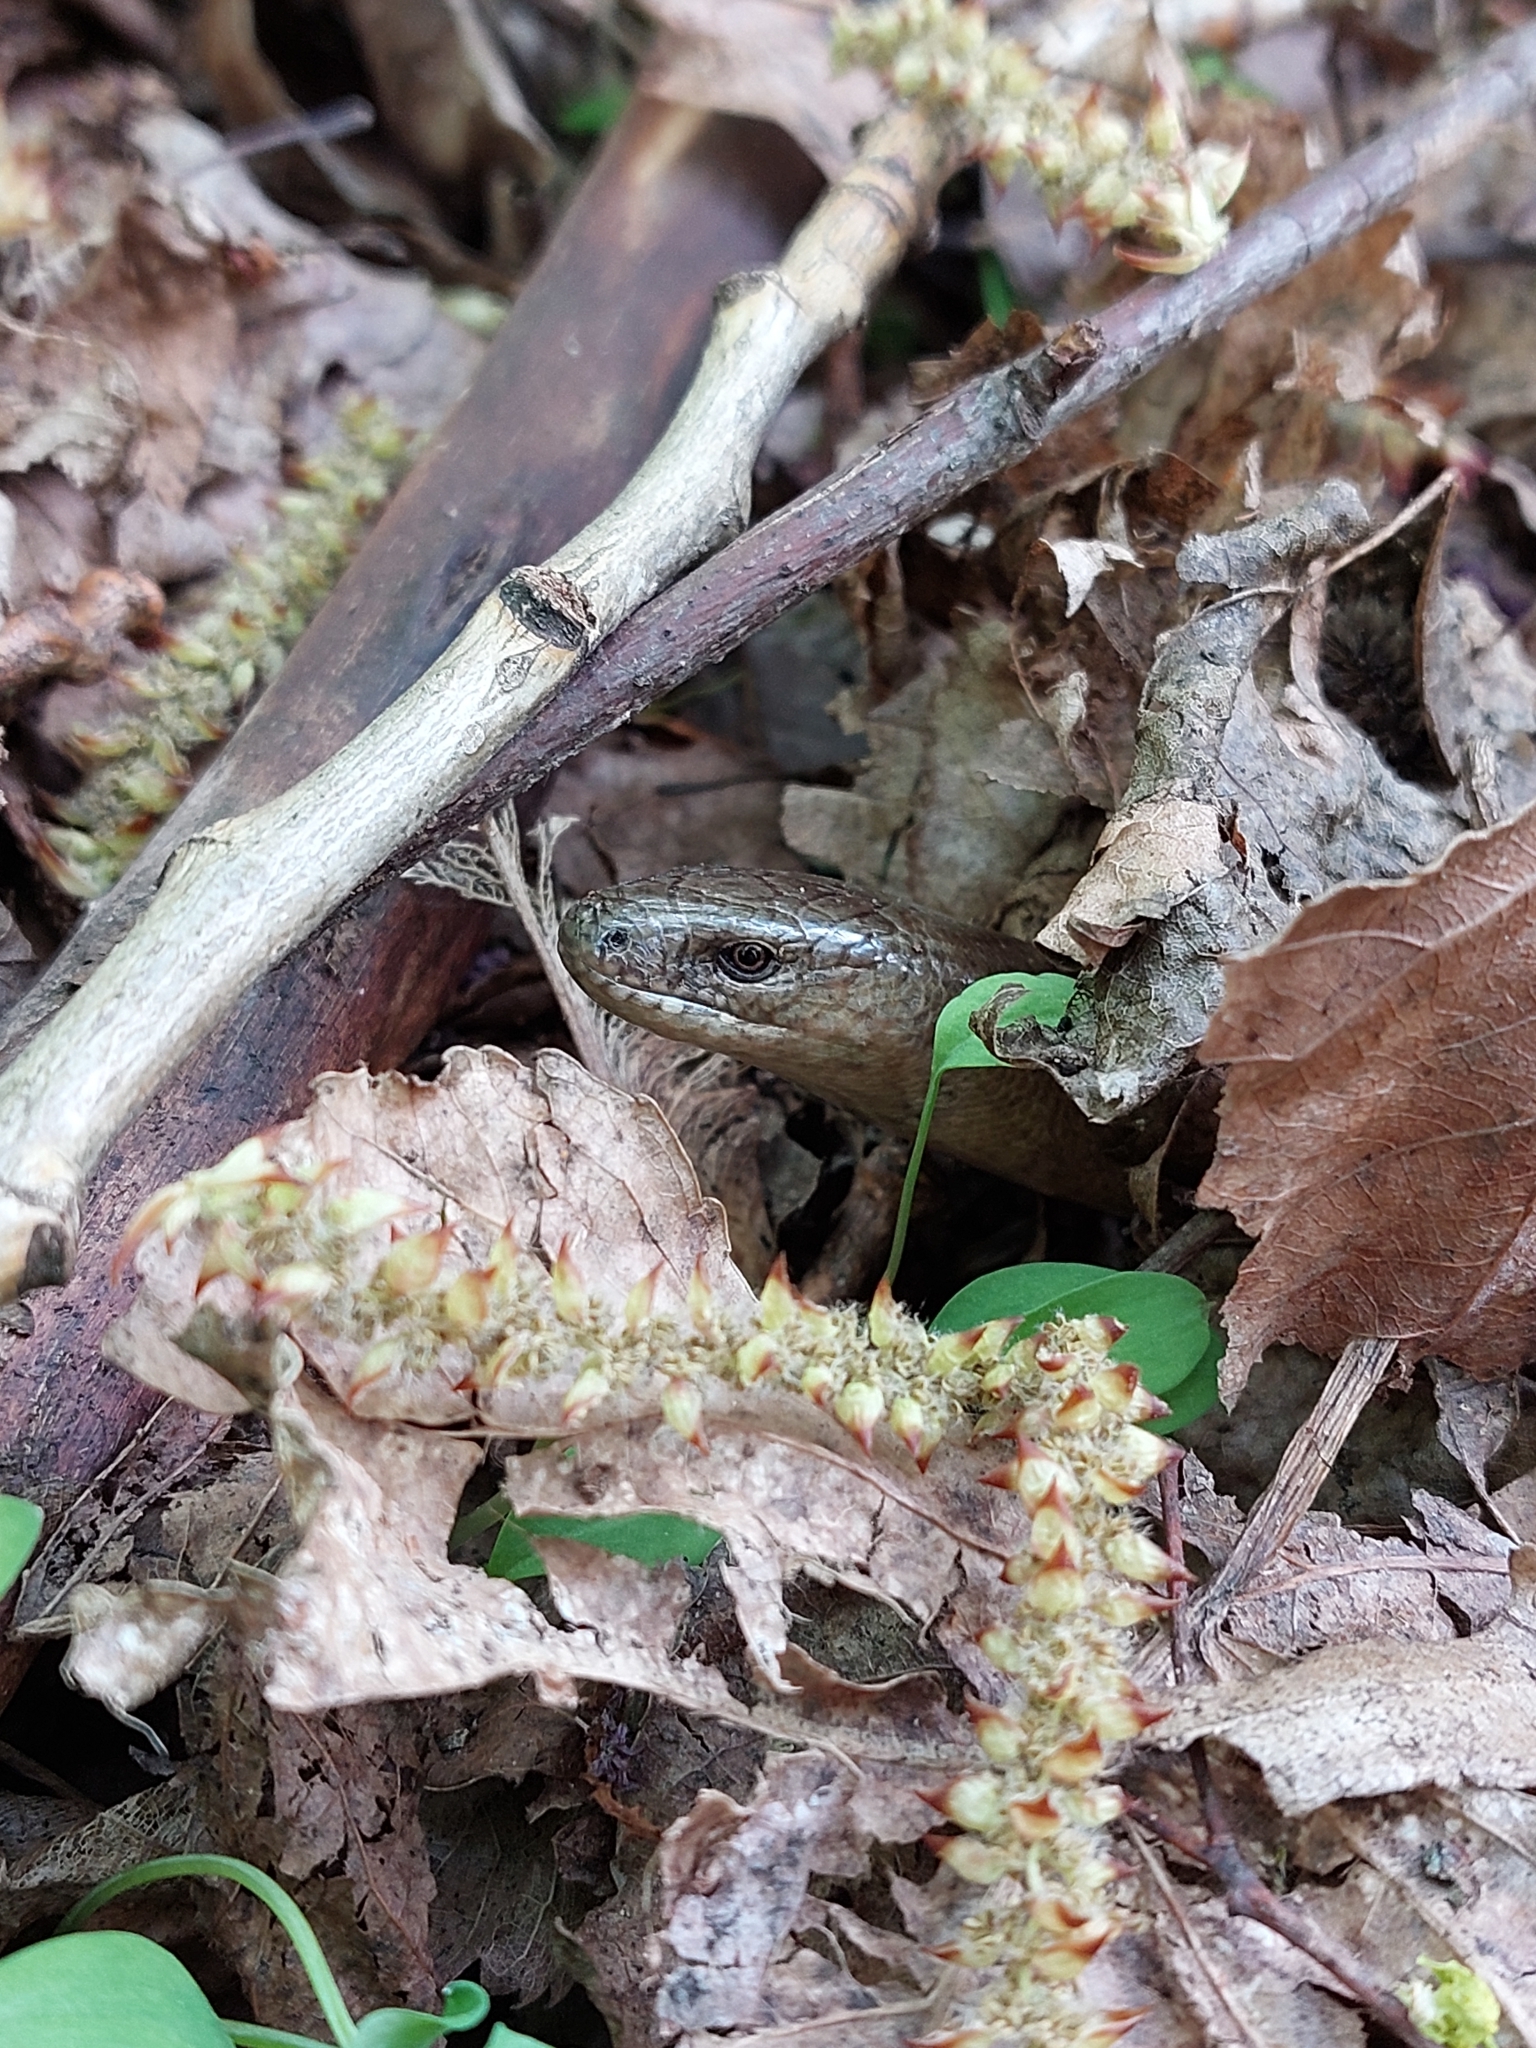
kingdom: Animalia
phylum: Chordata
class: Squamata
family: Anguidae
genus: Anguis
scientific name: Anguis colchica
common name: Slow worm
